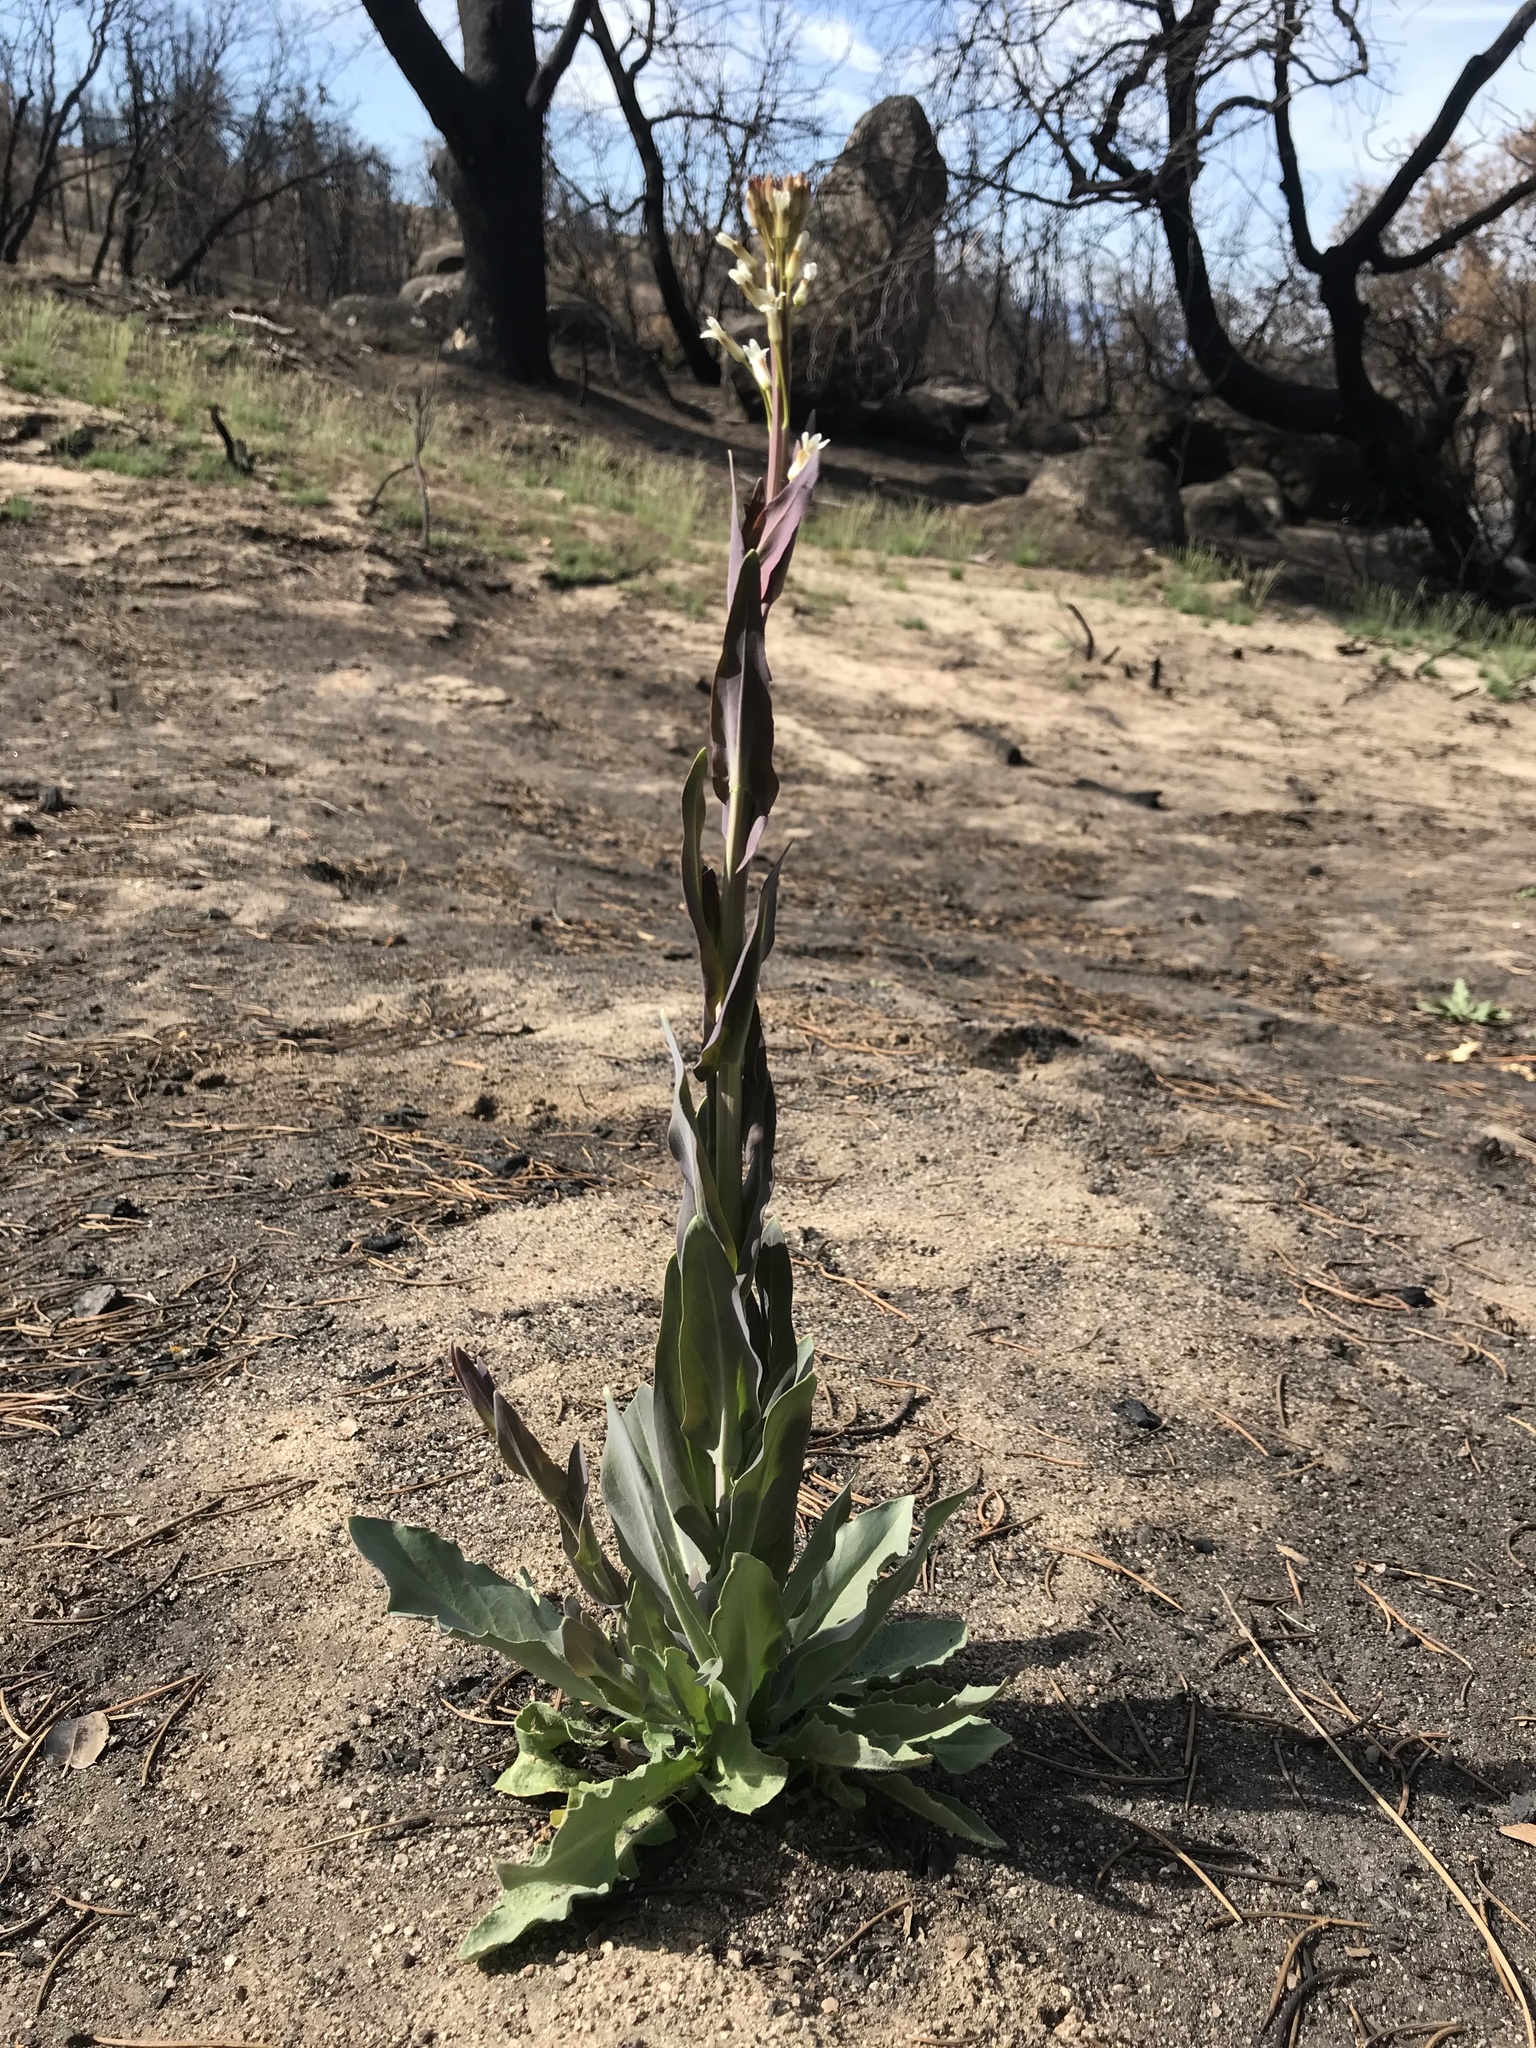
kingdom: Plantae
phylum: Tracheophyta
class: Magnoliopsida
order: Brassicales
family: Brassicaceae
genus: Turritis
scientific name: Turritis glabra
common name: Tower rockcress
